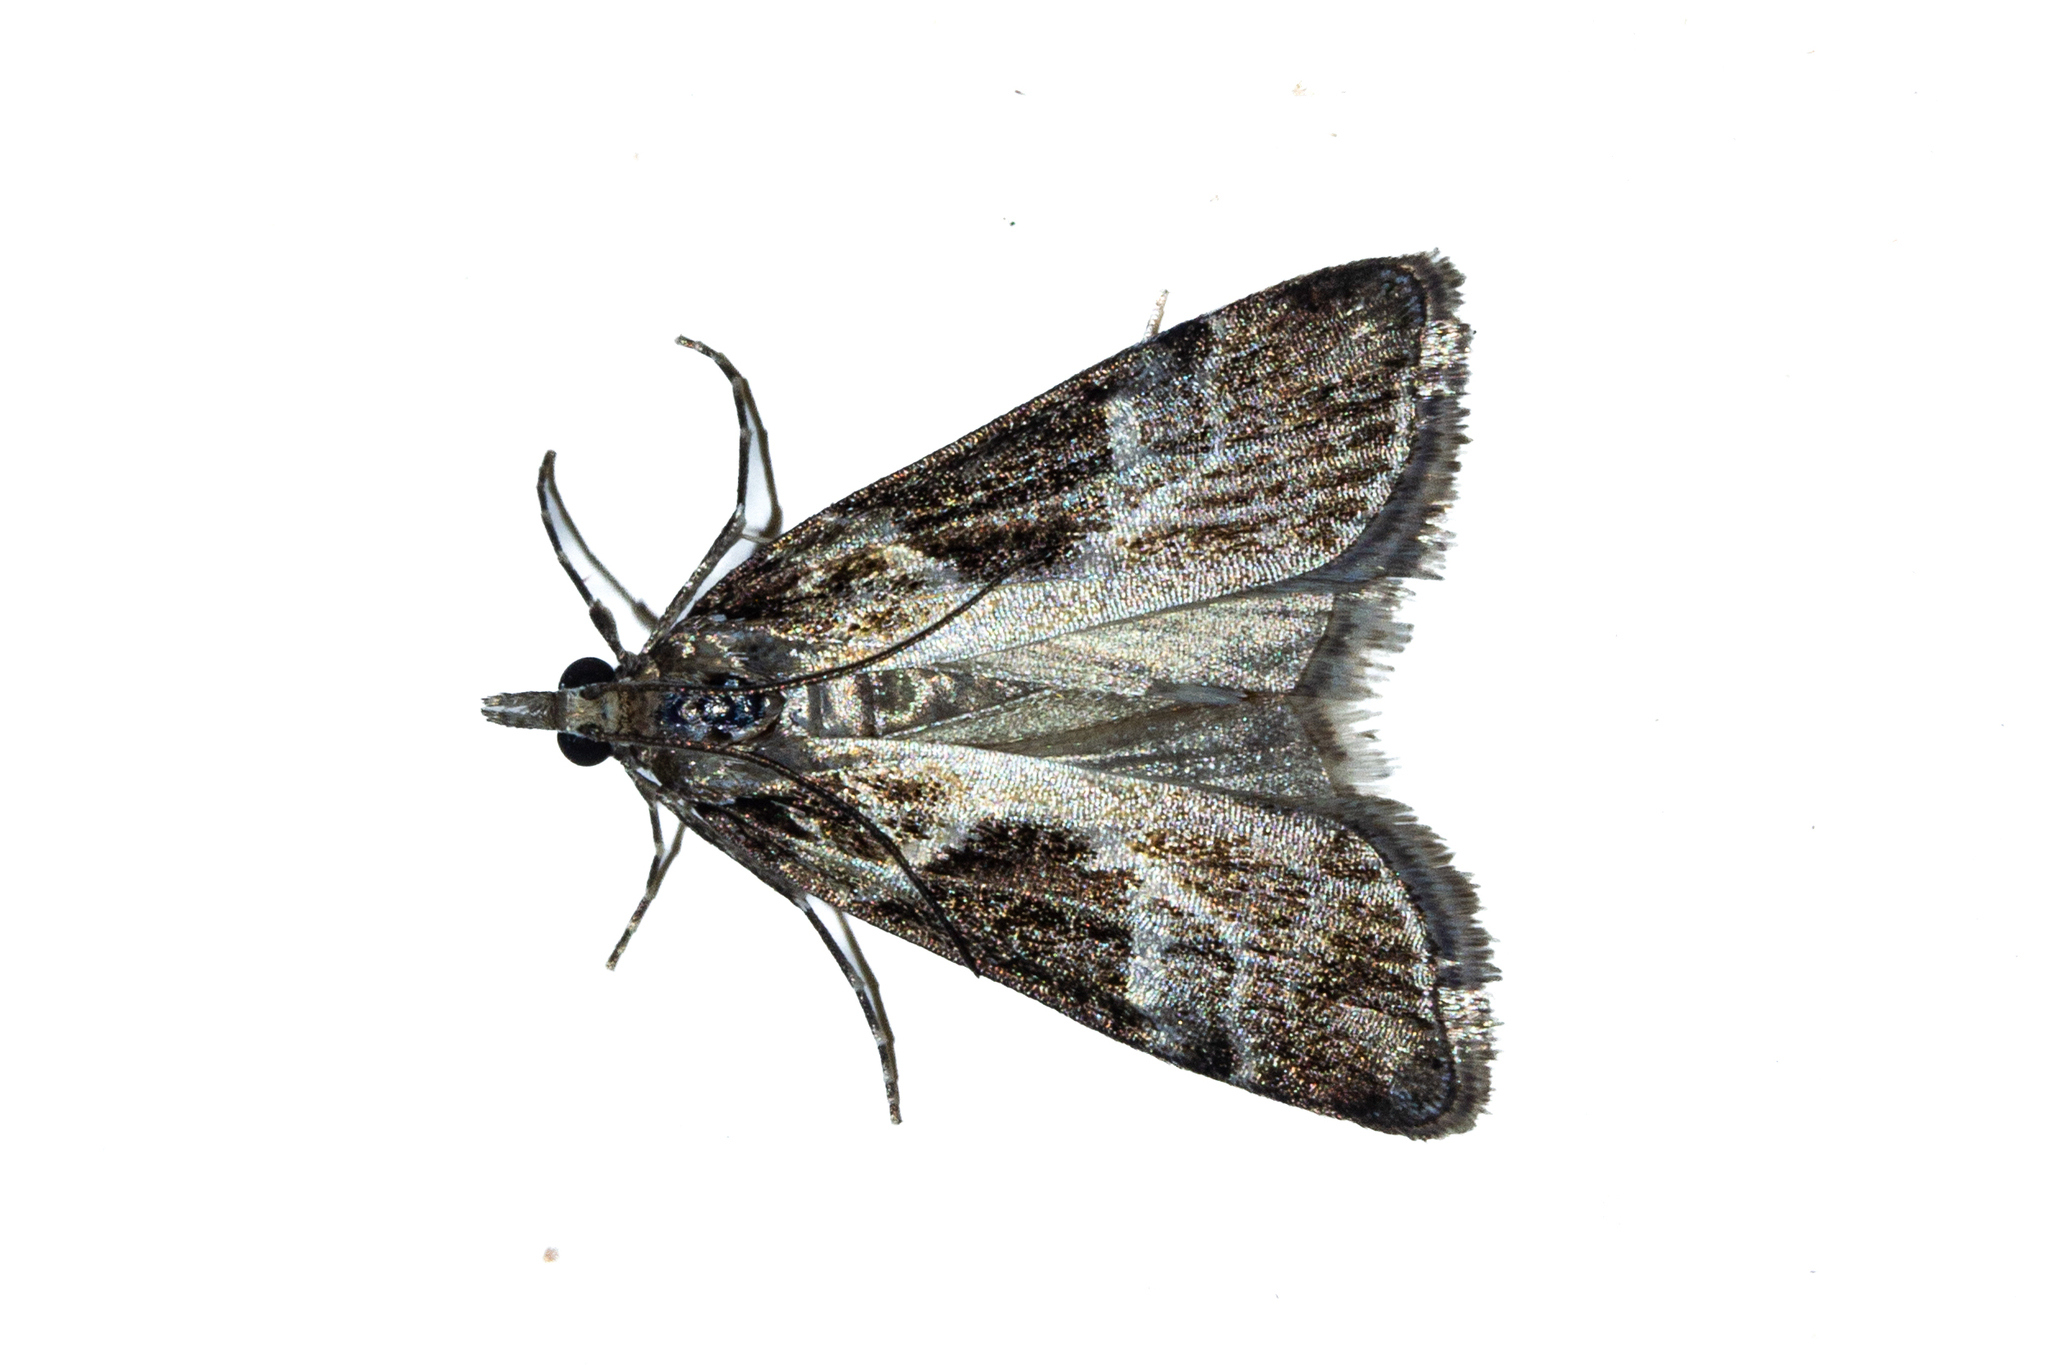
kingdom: Animalia
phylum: Arthropoda
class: Insecta
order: Lepidoptera
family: Crambidae
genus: Eudonia
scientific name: Eudonia melanaegis
